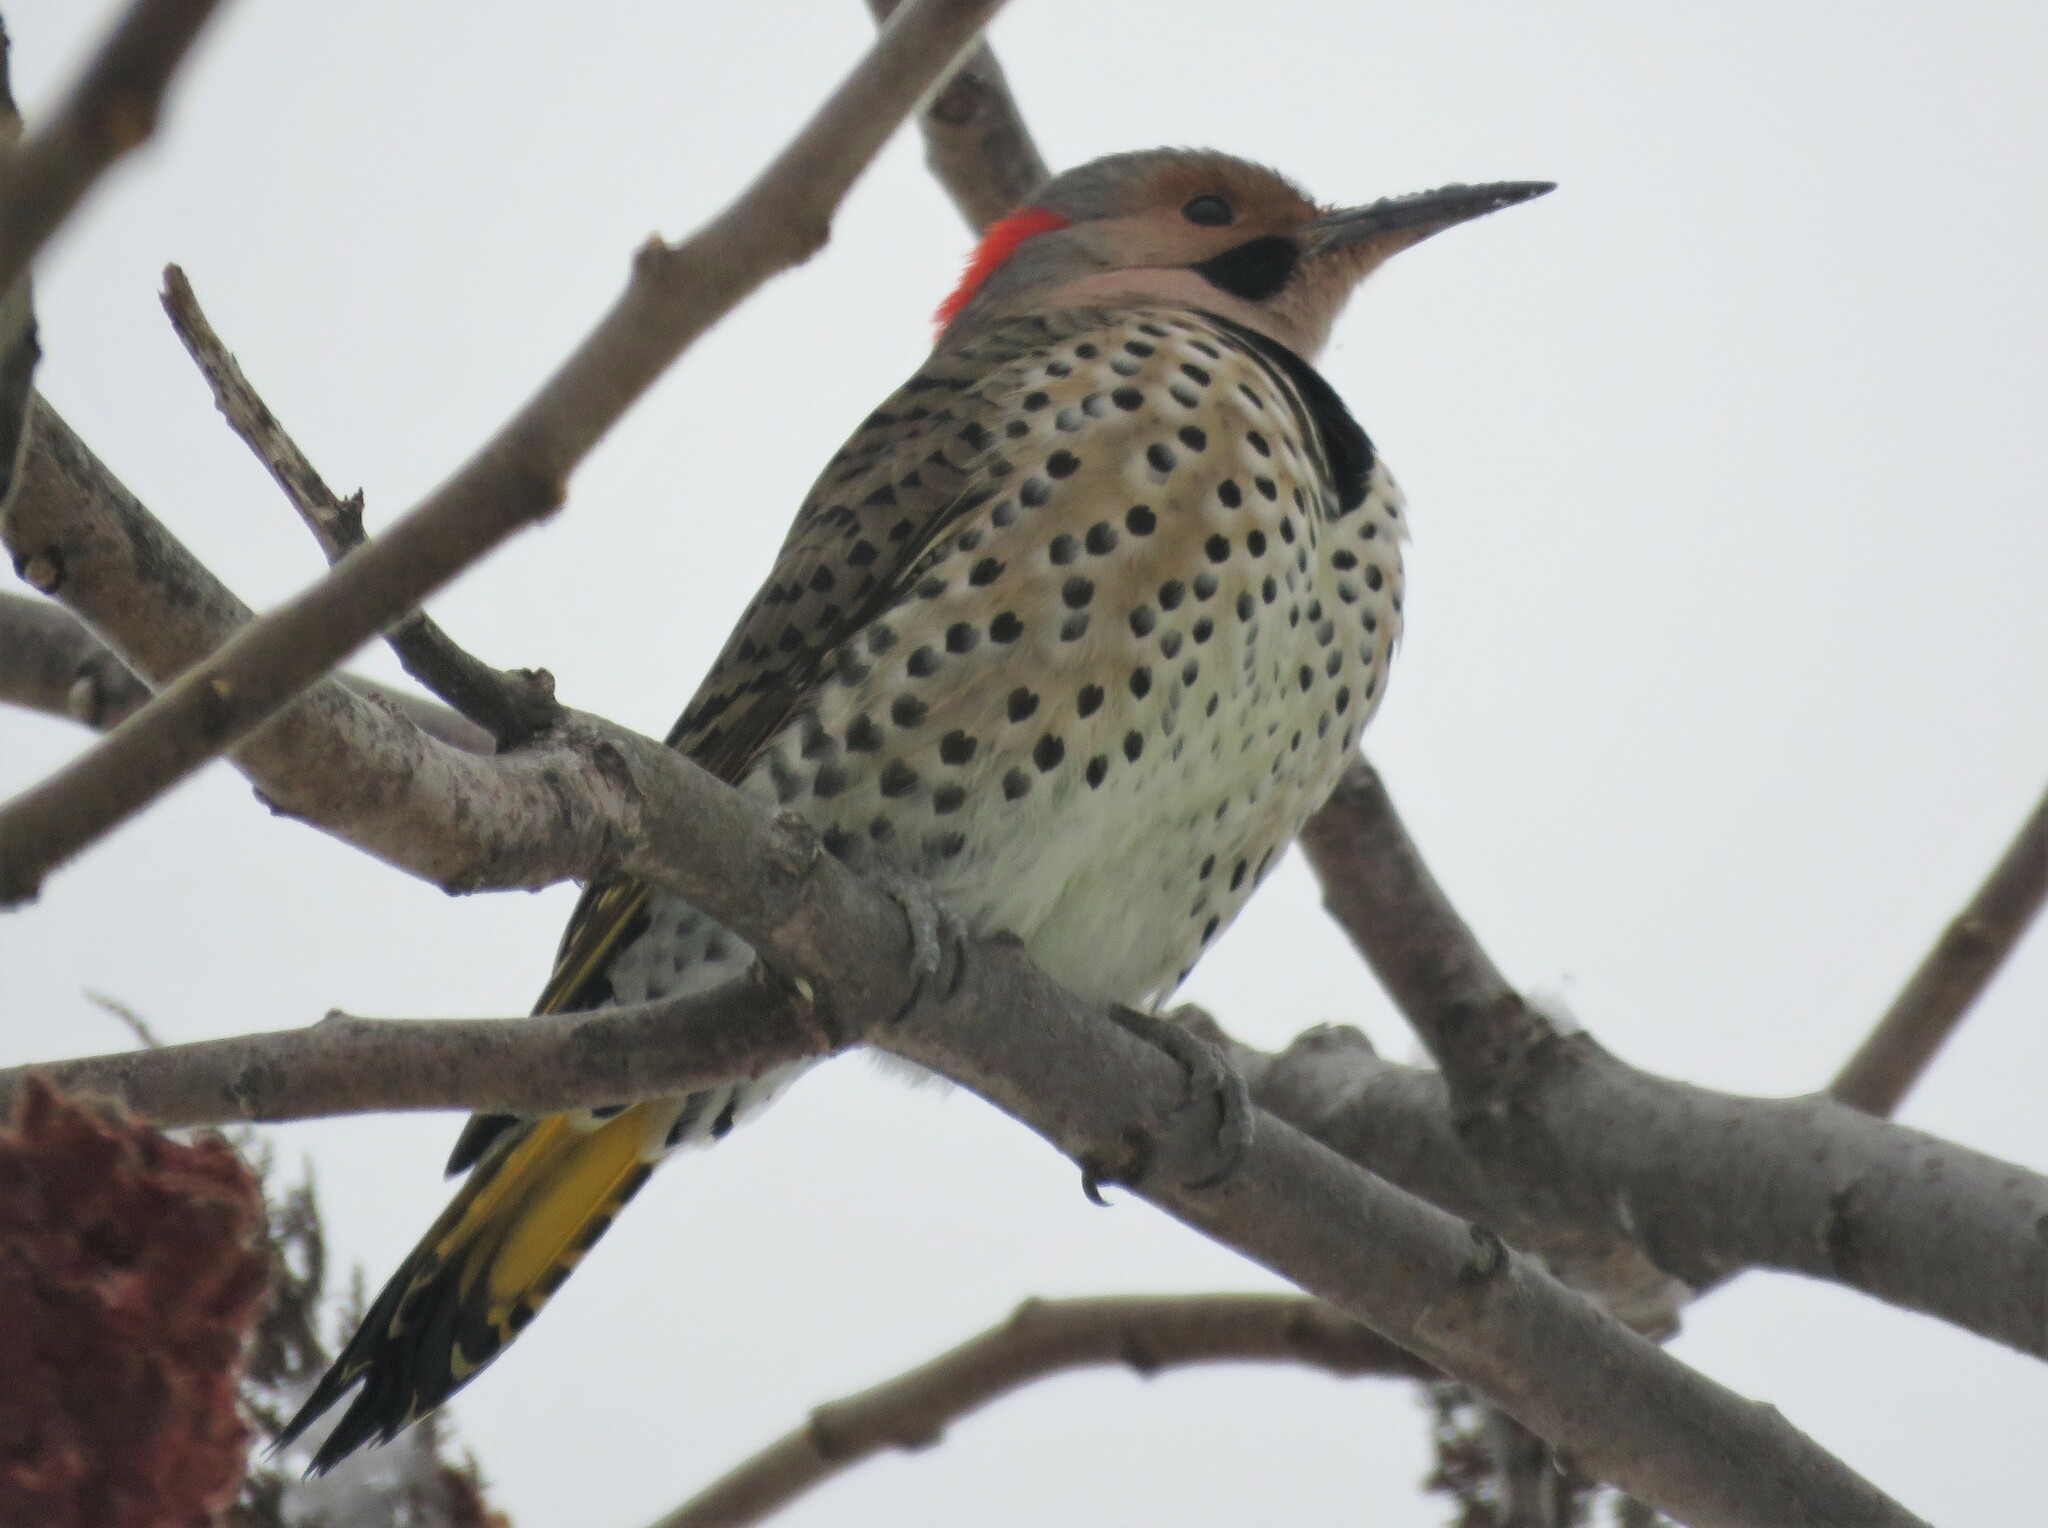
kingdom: Animalia
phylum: Chordata
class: Aves
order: Piciformes
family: Picidae
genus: Colaptes
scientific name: Colaptes auratus
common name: Northern flicker
